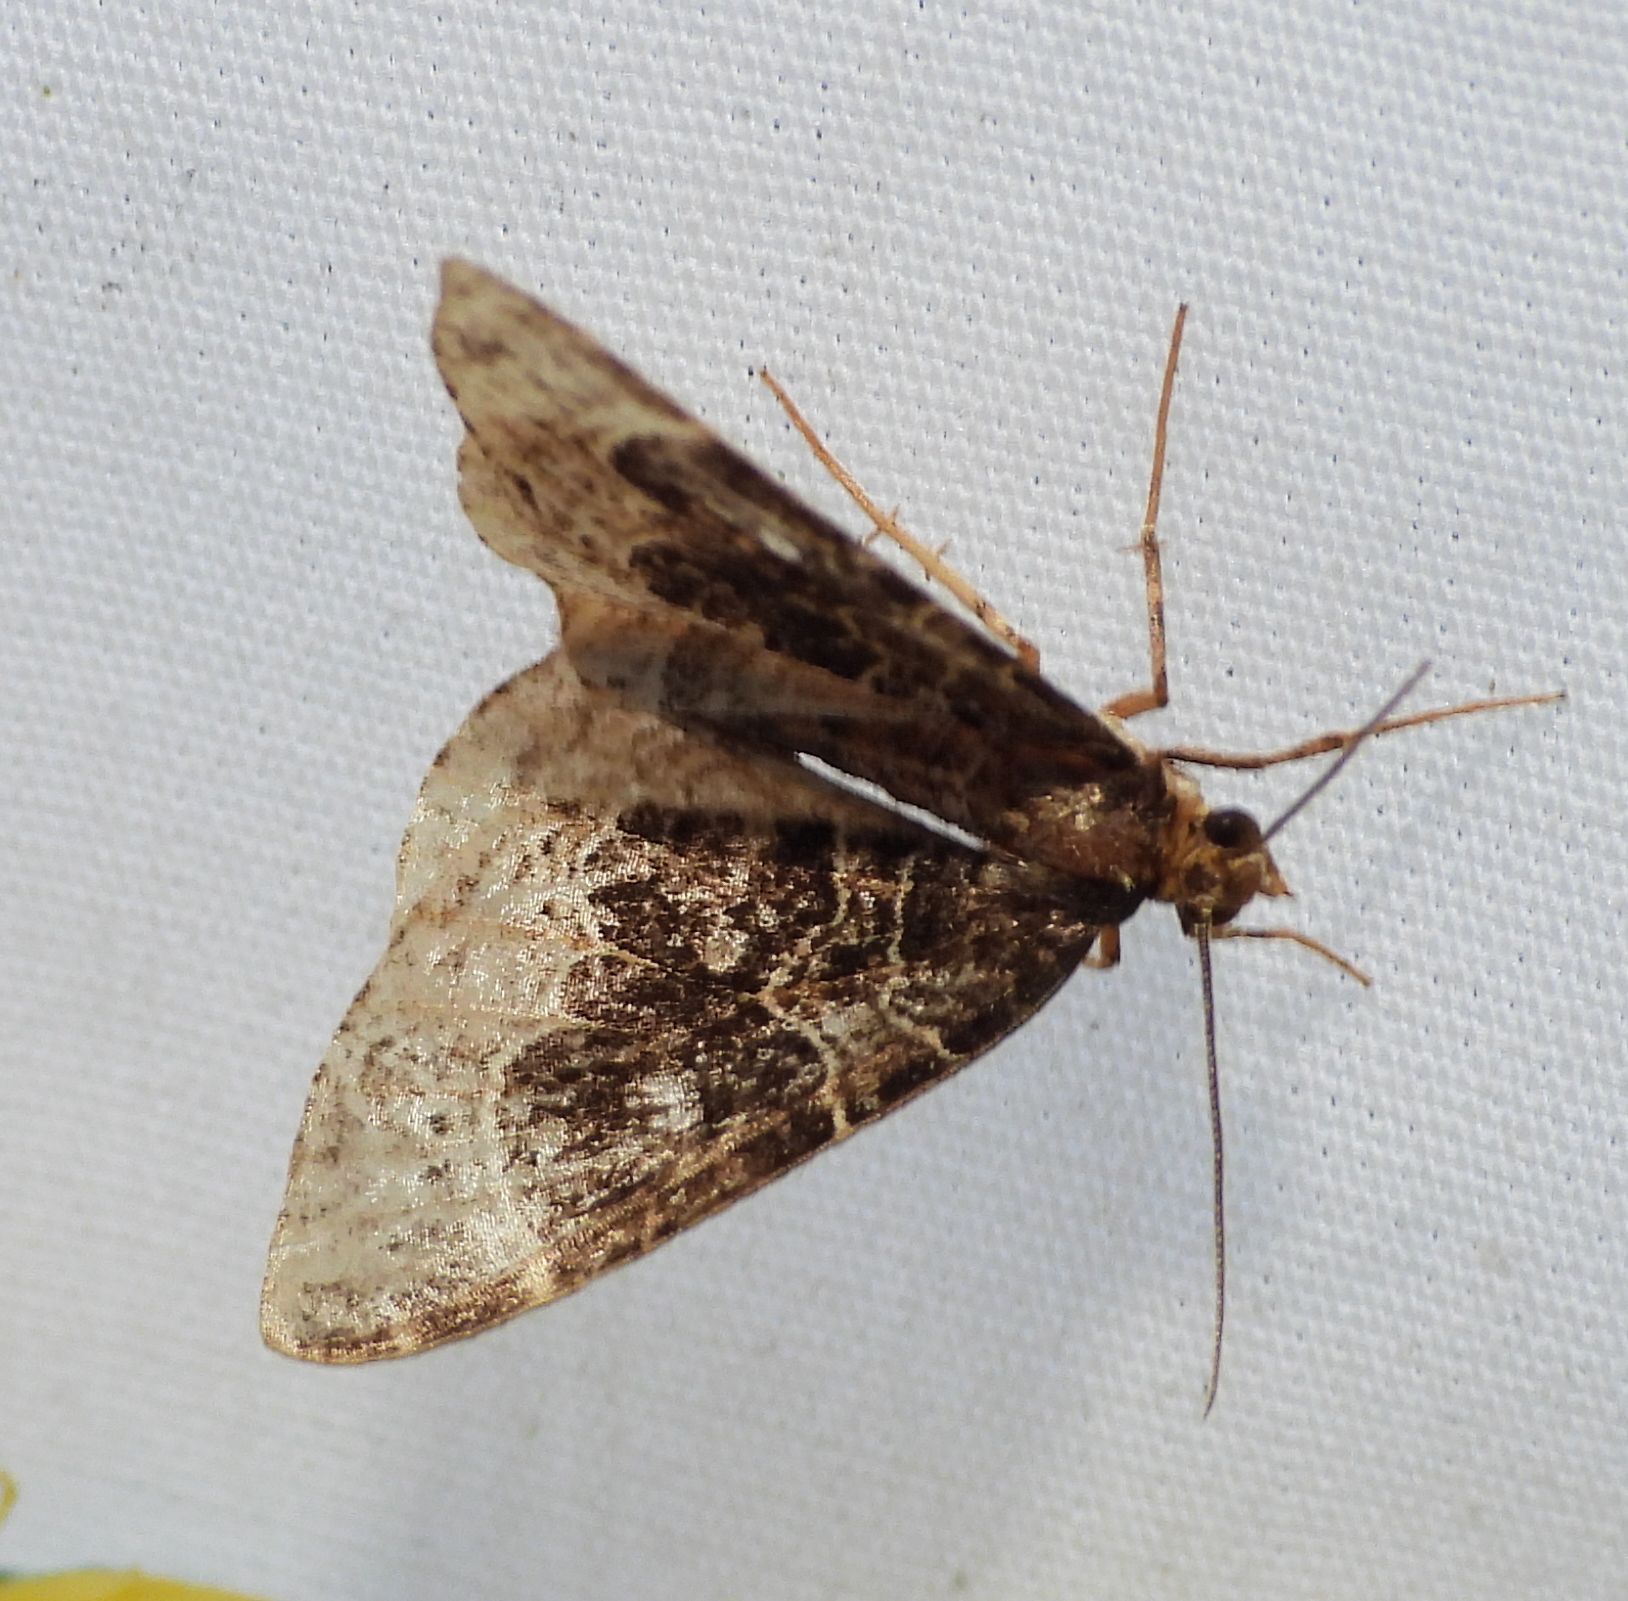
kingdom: Animalia
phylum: Arthropoda
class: Insecta
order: Lepidoptera
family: Geometridae
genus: Ecliptopera
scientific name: Ecliptopera silaceata
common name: Small phoenix
